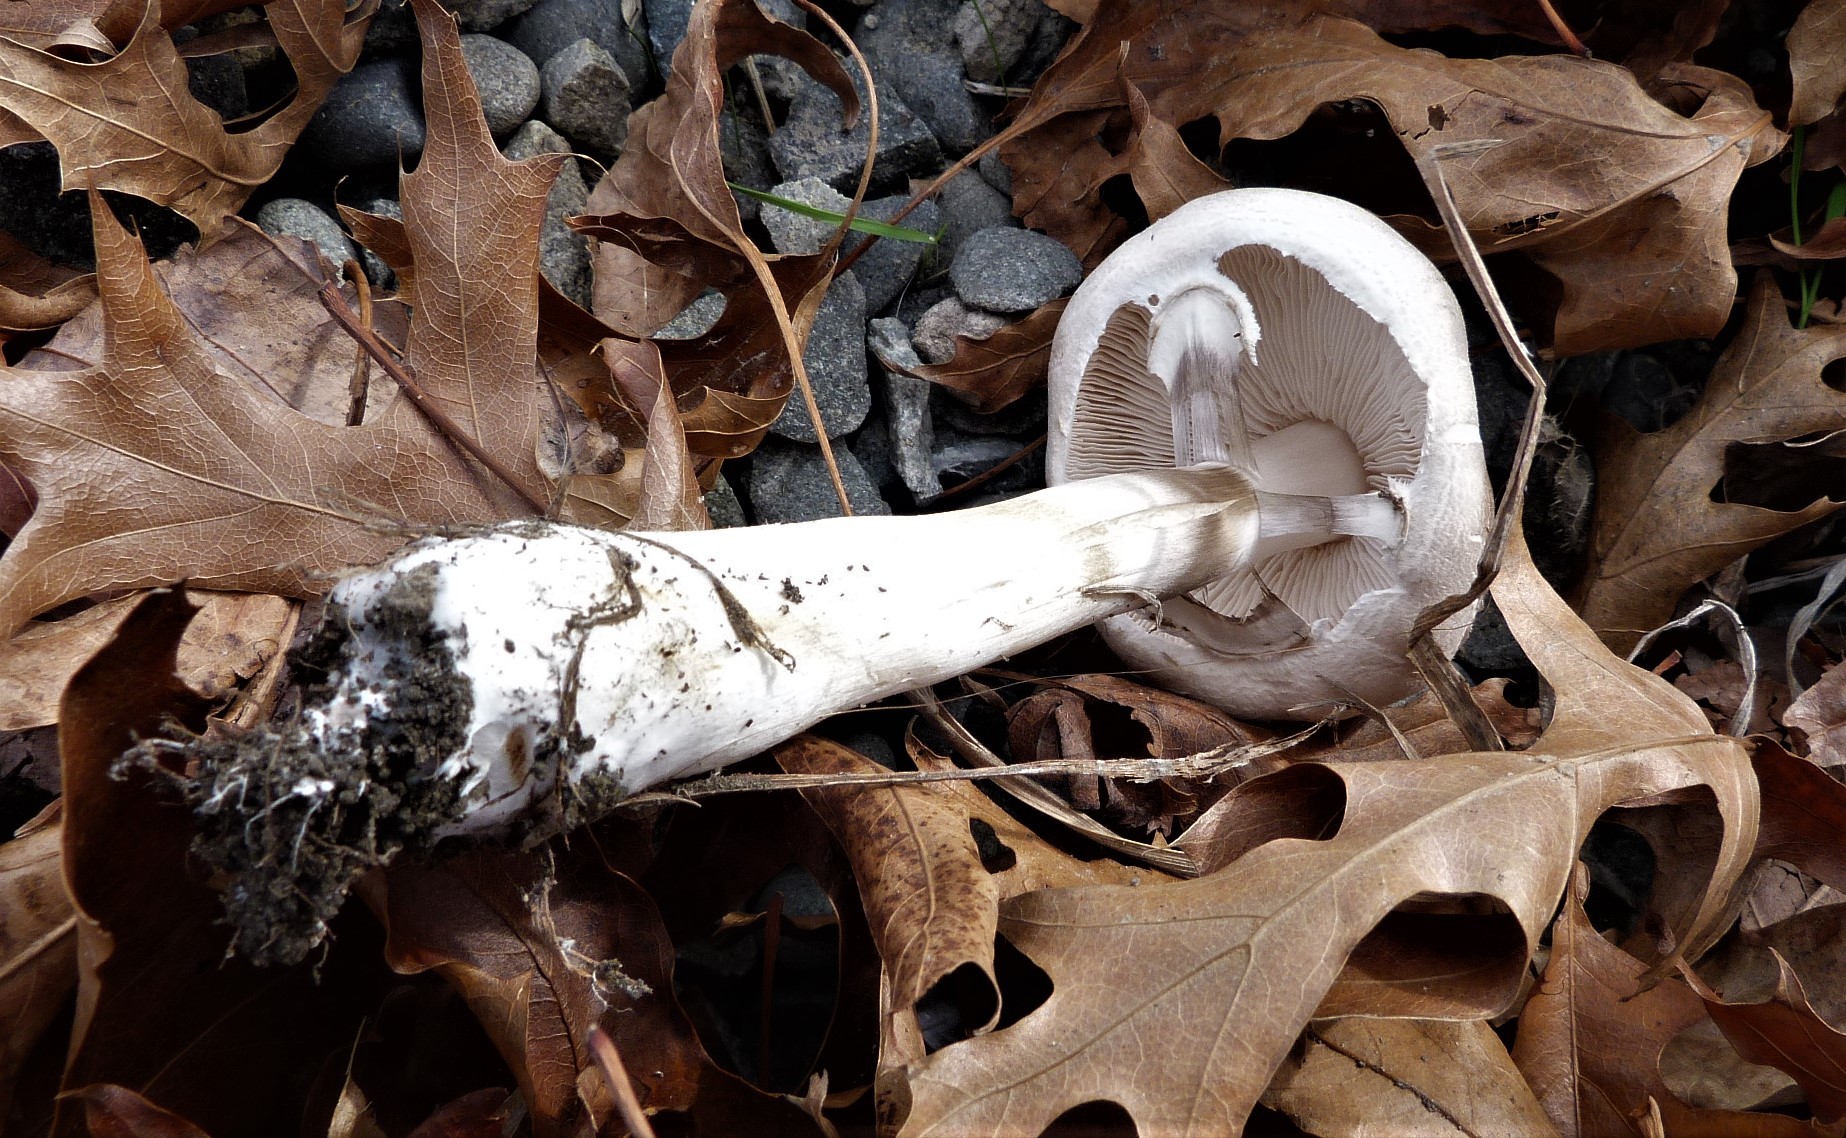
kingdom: Fungi
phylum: Basidiomycota
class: Agaricomycetes
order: Agaricales
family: Agaricaceae
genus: Leucoagaricus
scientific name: Leucoagaricus leucothites
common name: White dapperling
